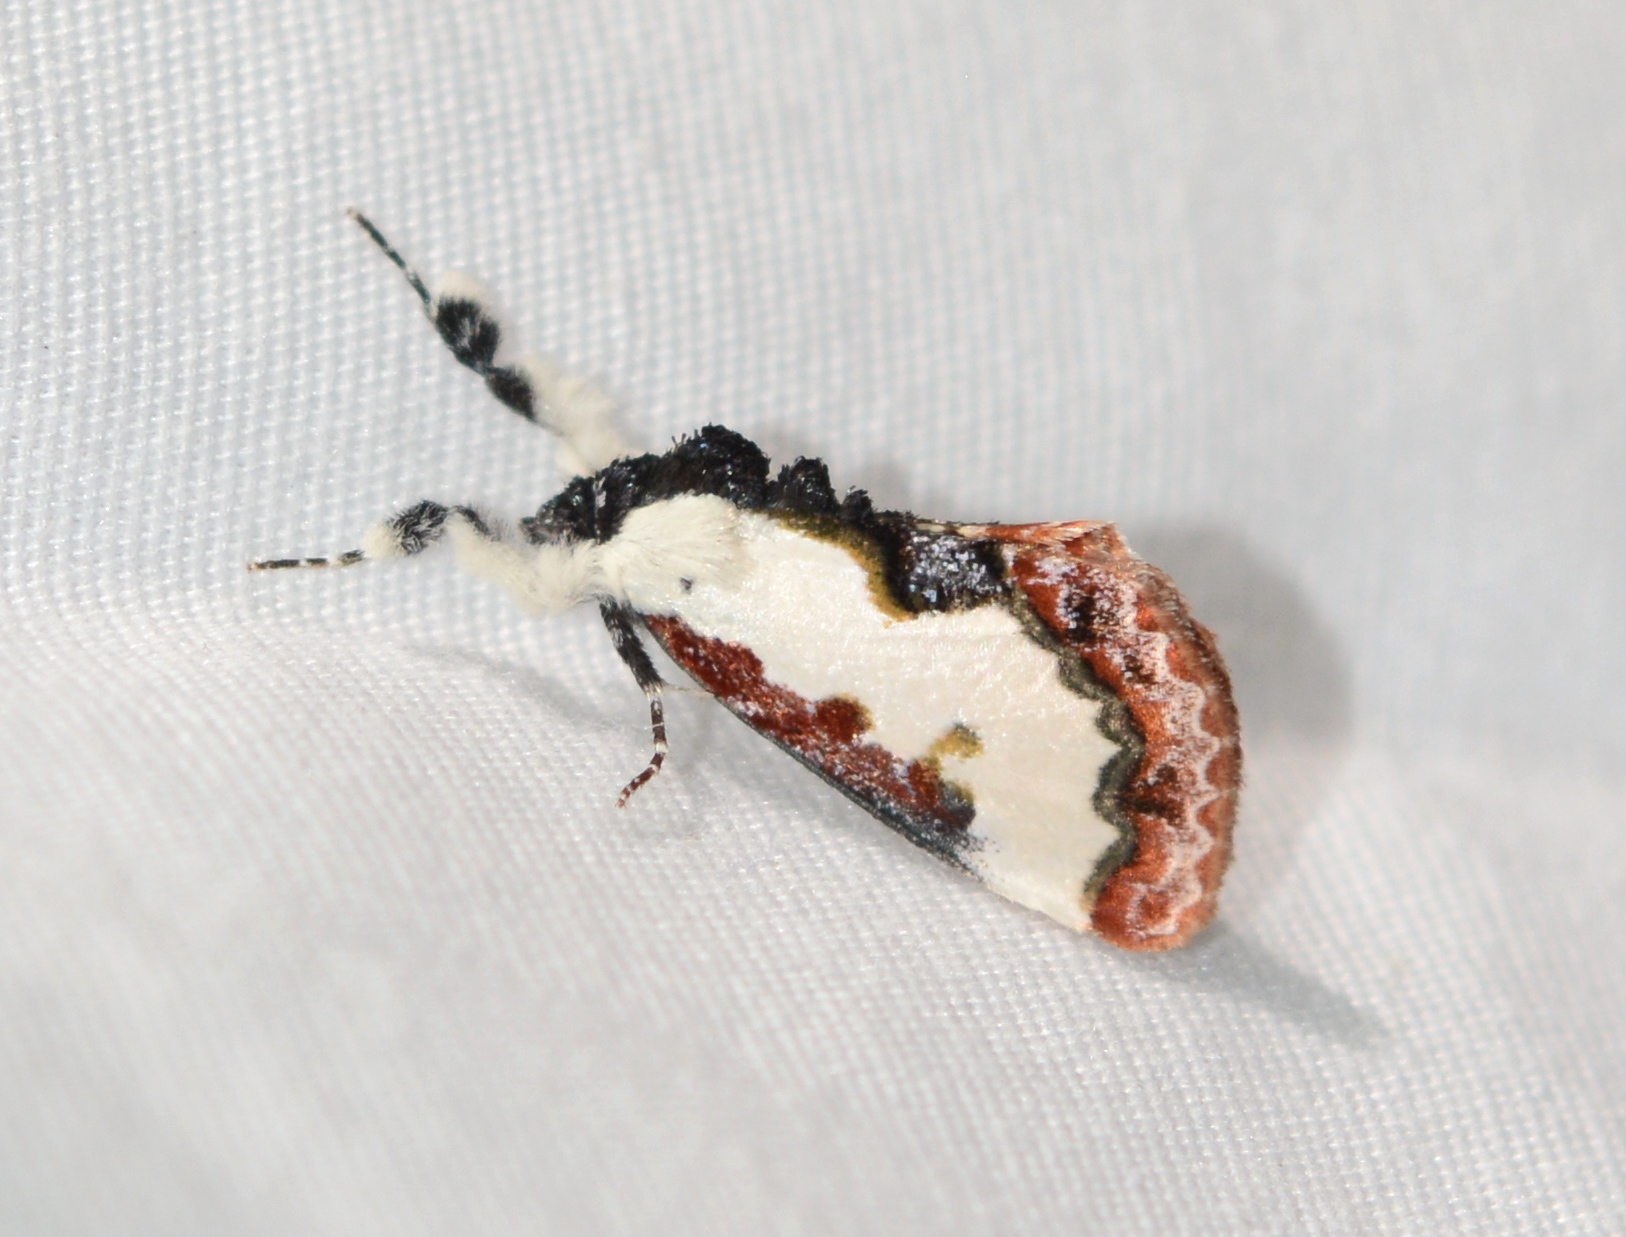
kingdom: Animalia
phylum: Arthropoda
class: Insecta
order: Lepidoptera
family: Noctuidae
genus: Eudryas
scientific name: Eudryas unio
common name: Pearly wood-nymph
